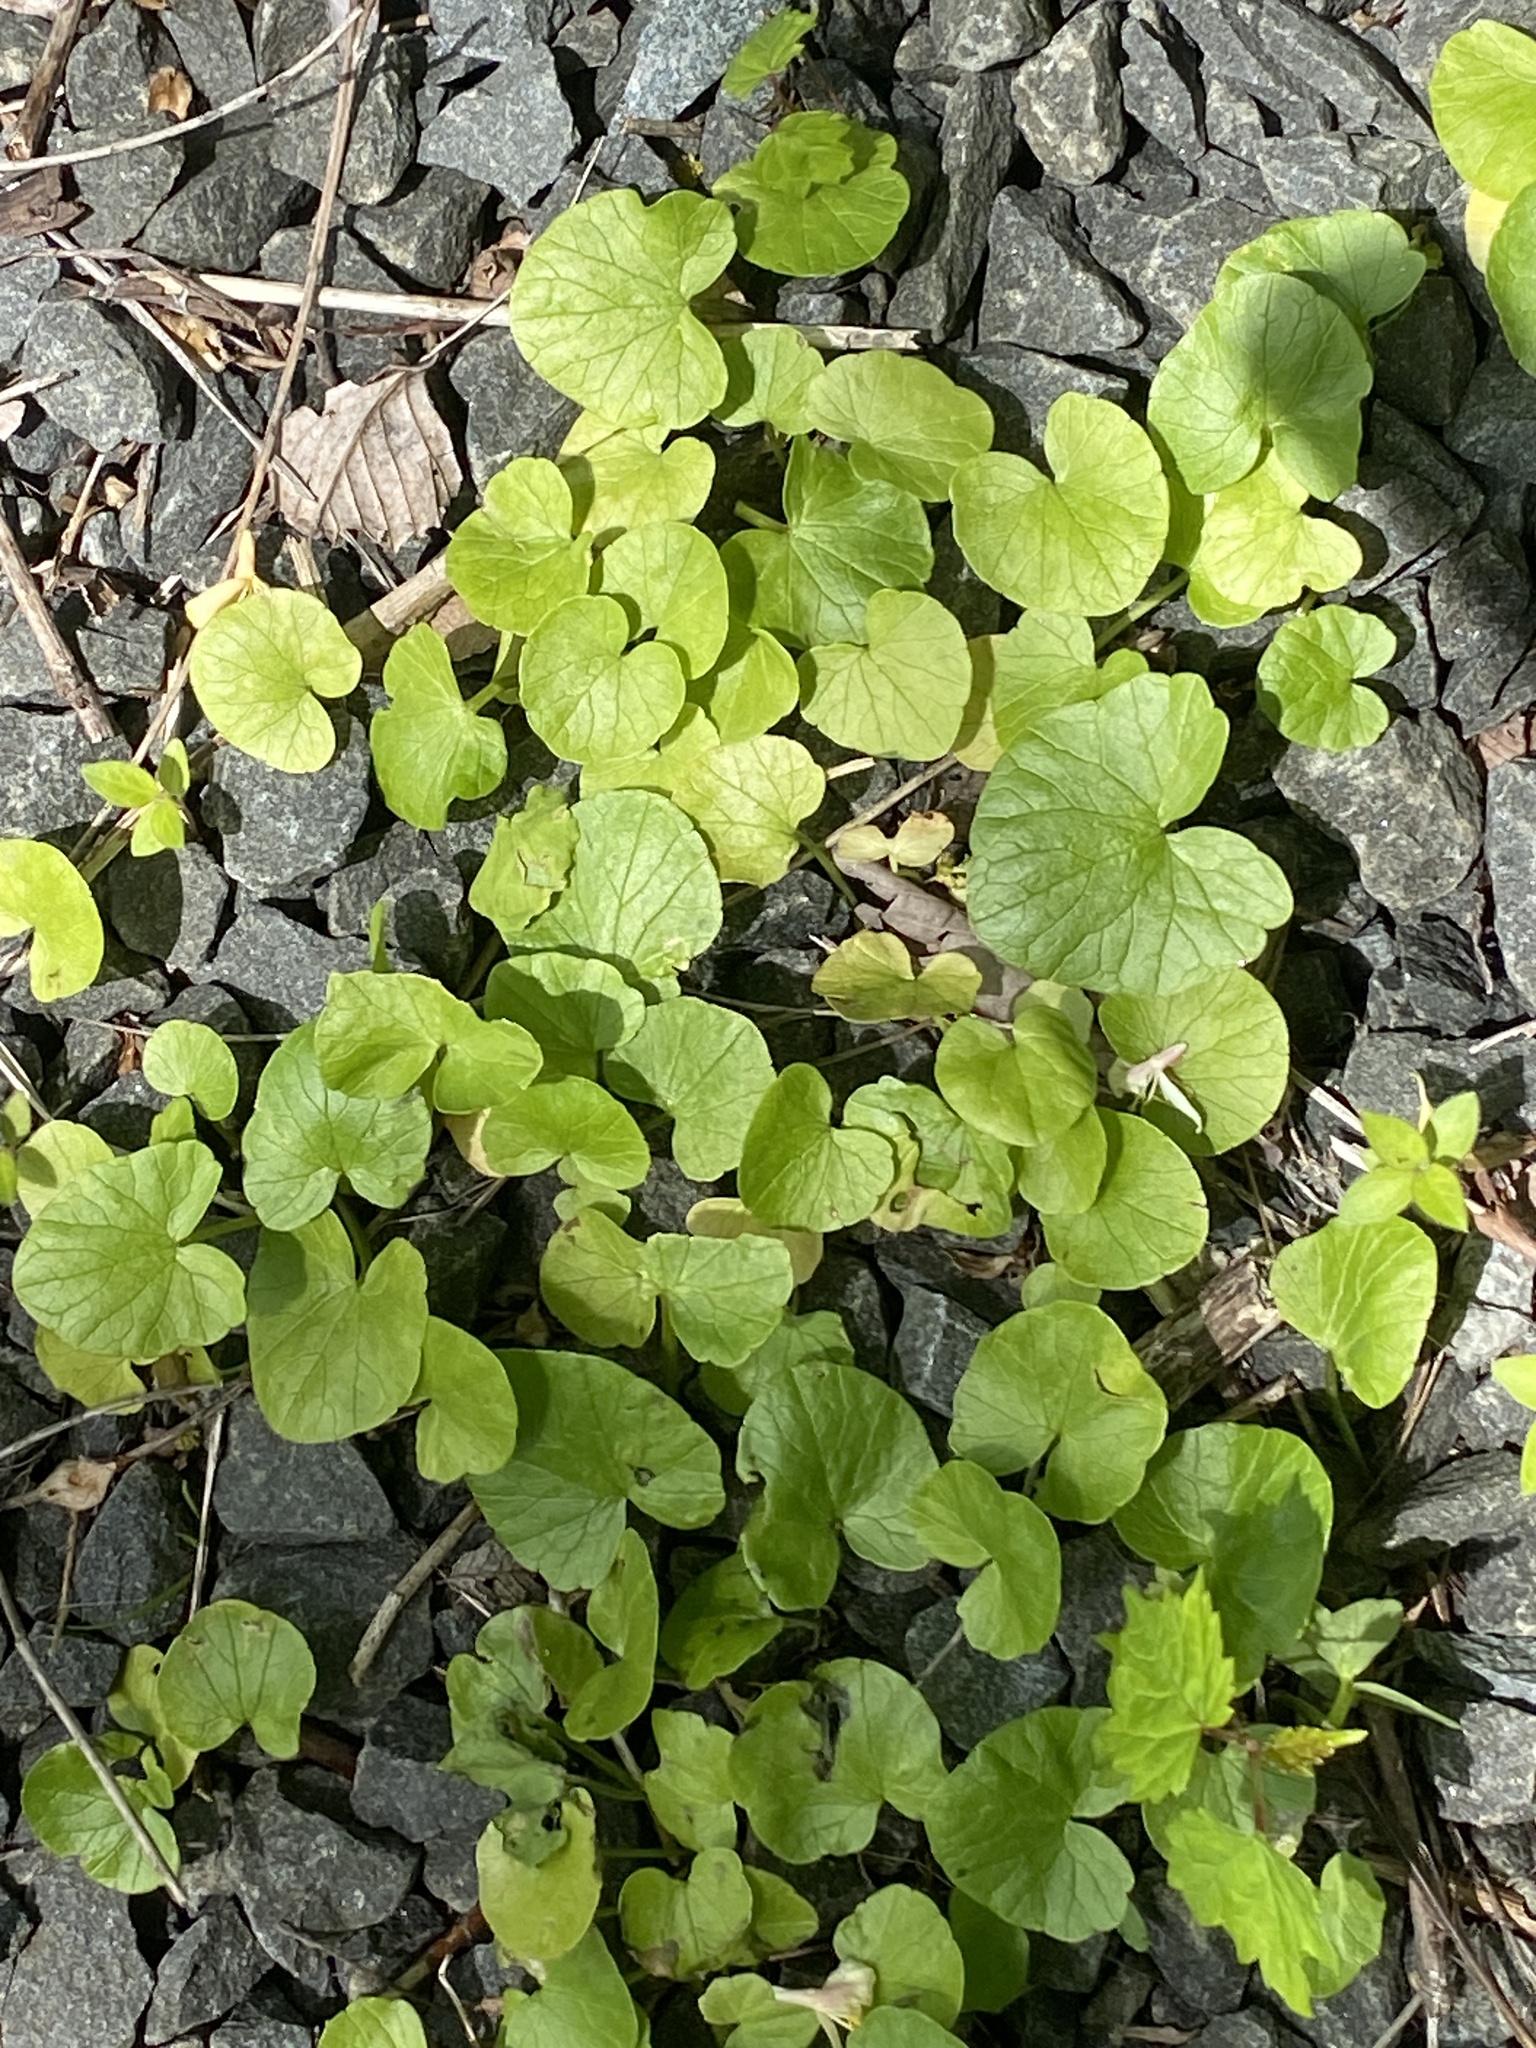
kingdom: Plantae
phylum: Tracheophyta
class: Magnoliopsida
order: Ranunculales
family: Ranunculaceae
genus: Ficaria
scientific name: Ficaria verna
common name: Lesser celandine
